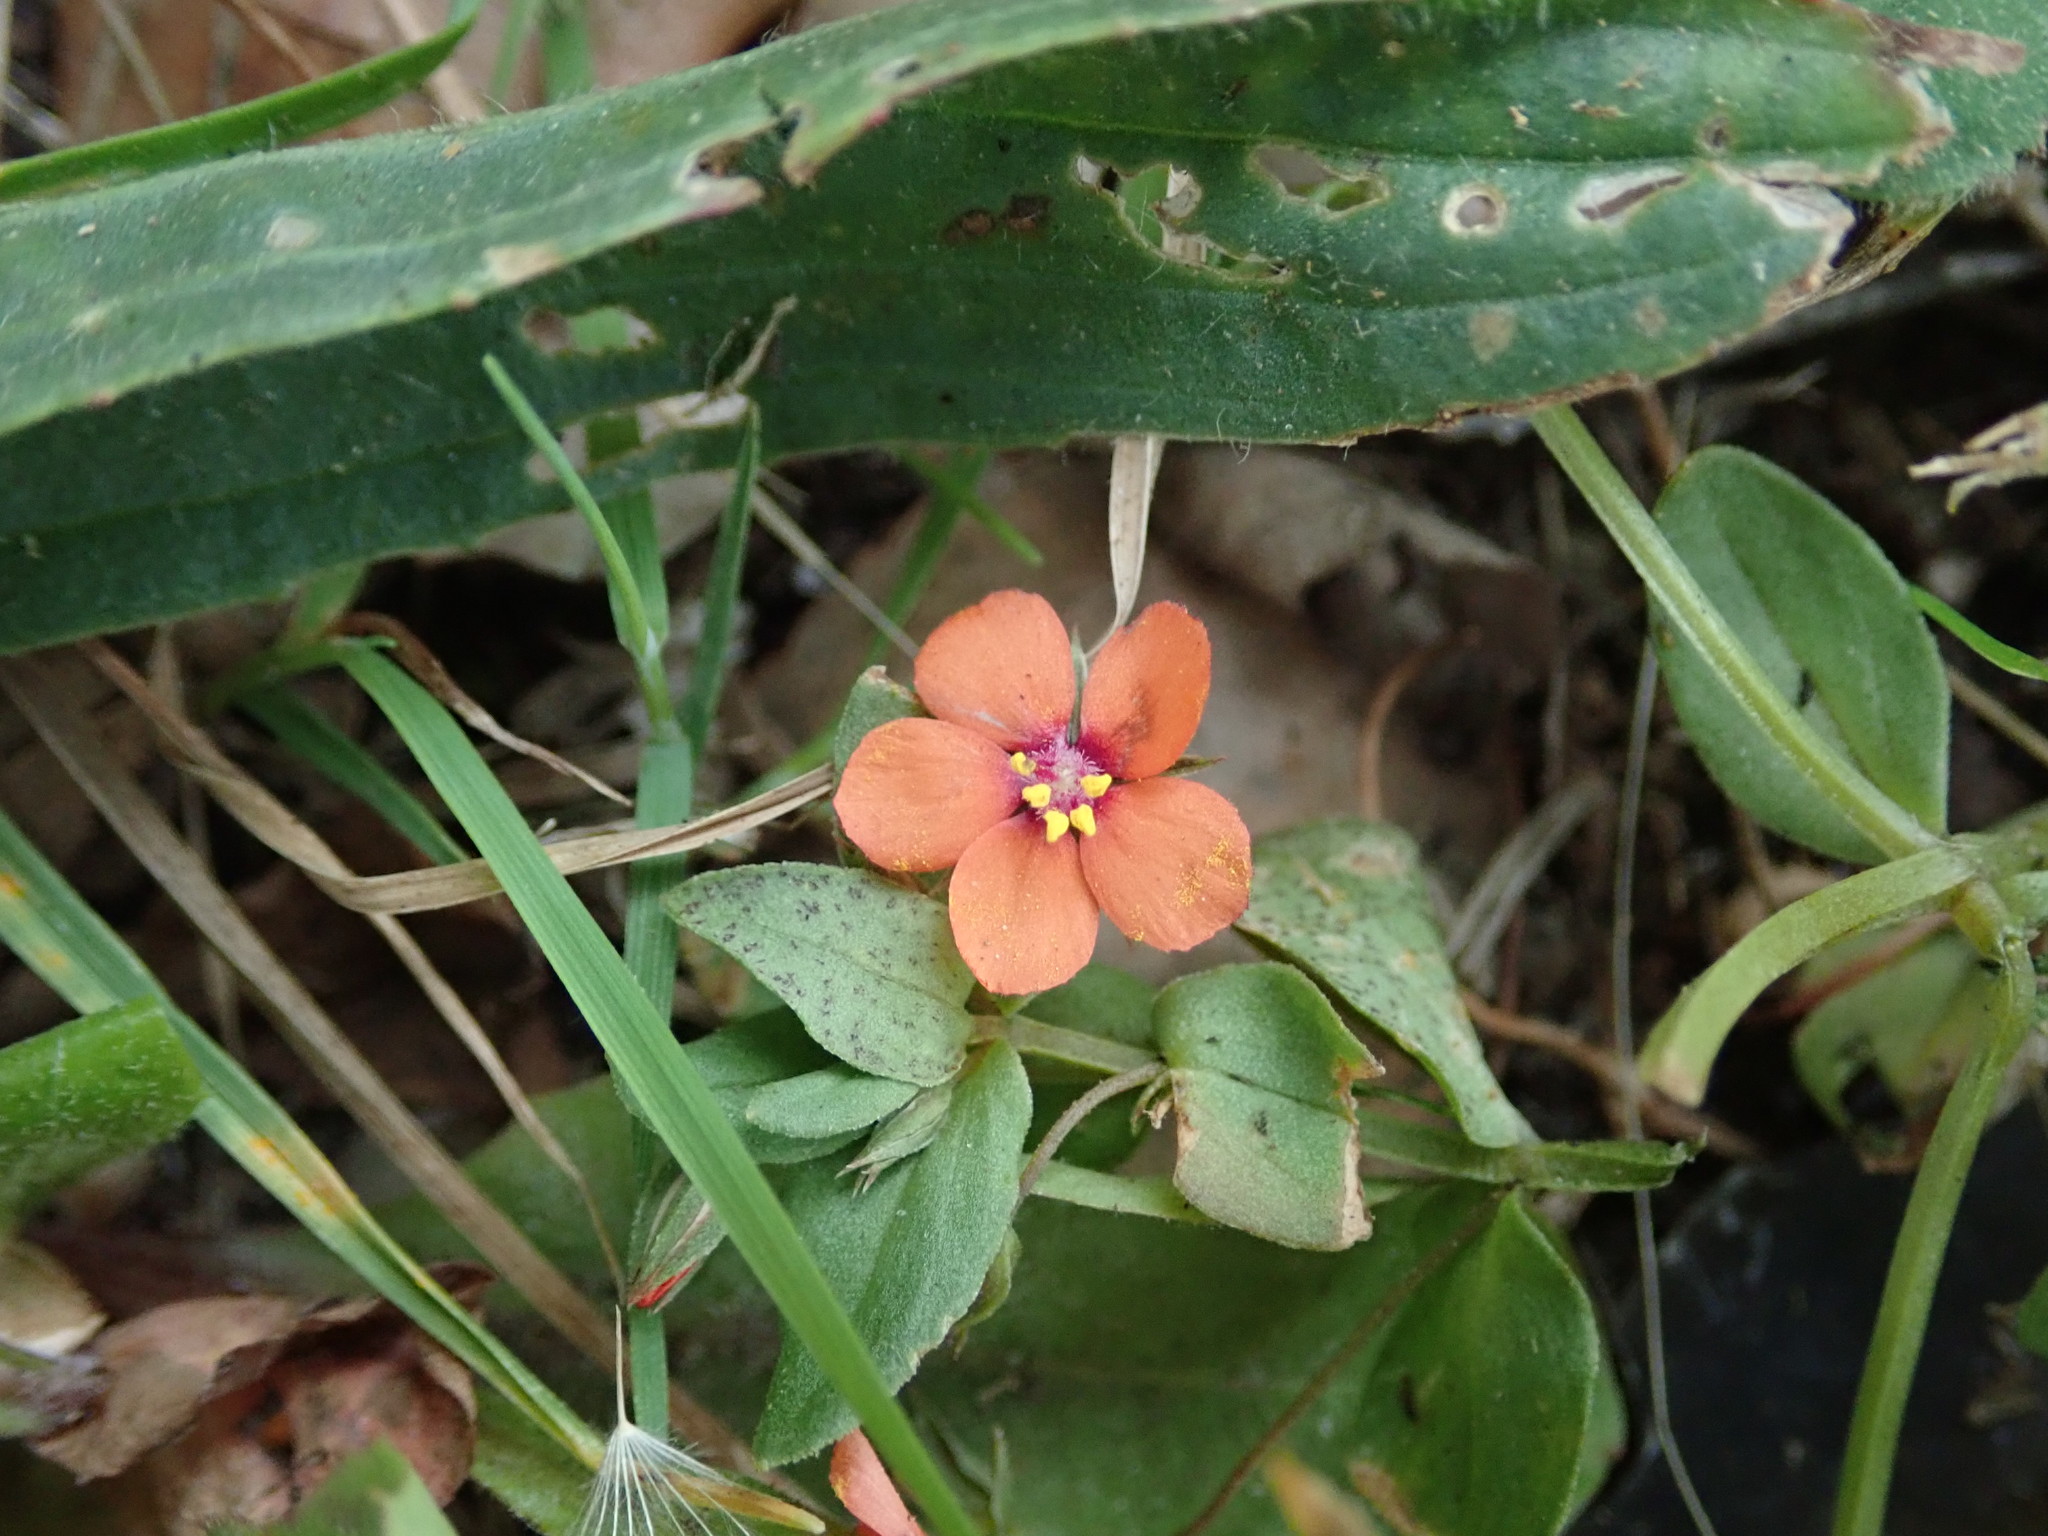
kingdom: Plantae
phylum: Tracheophyta
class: Magnoliopsida
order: Ericales
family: Primulaceae
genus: Lysimachia
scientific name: Lysimachia arvensis
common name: Scarlet pimpernel
